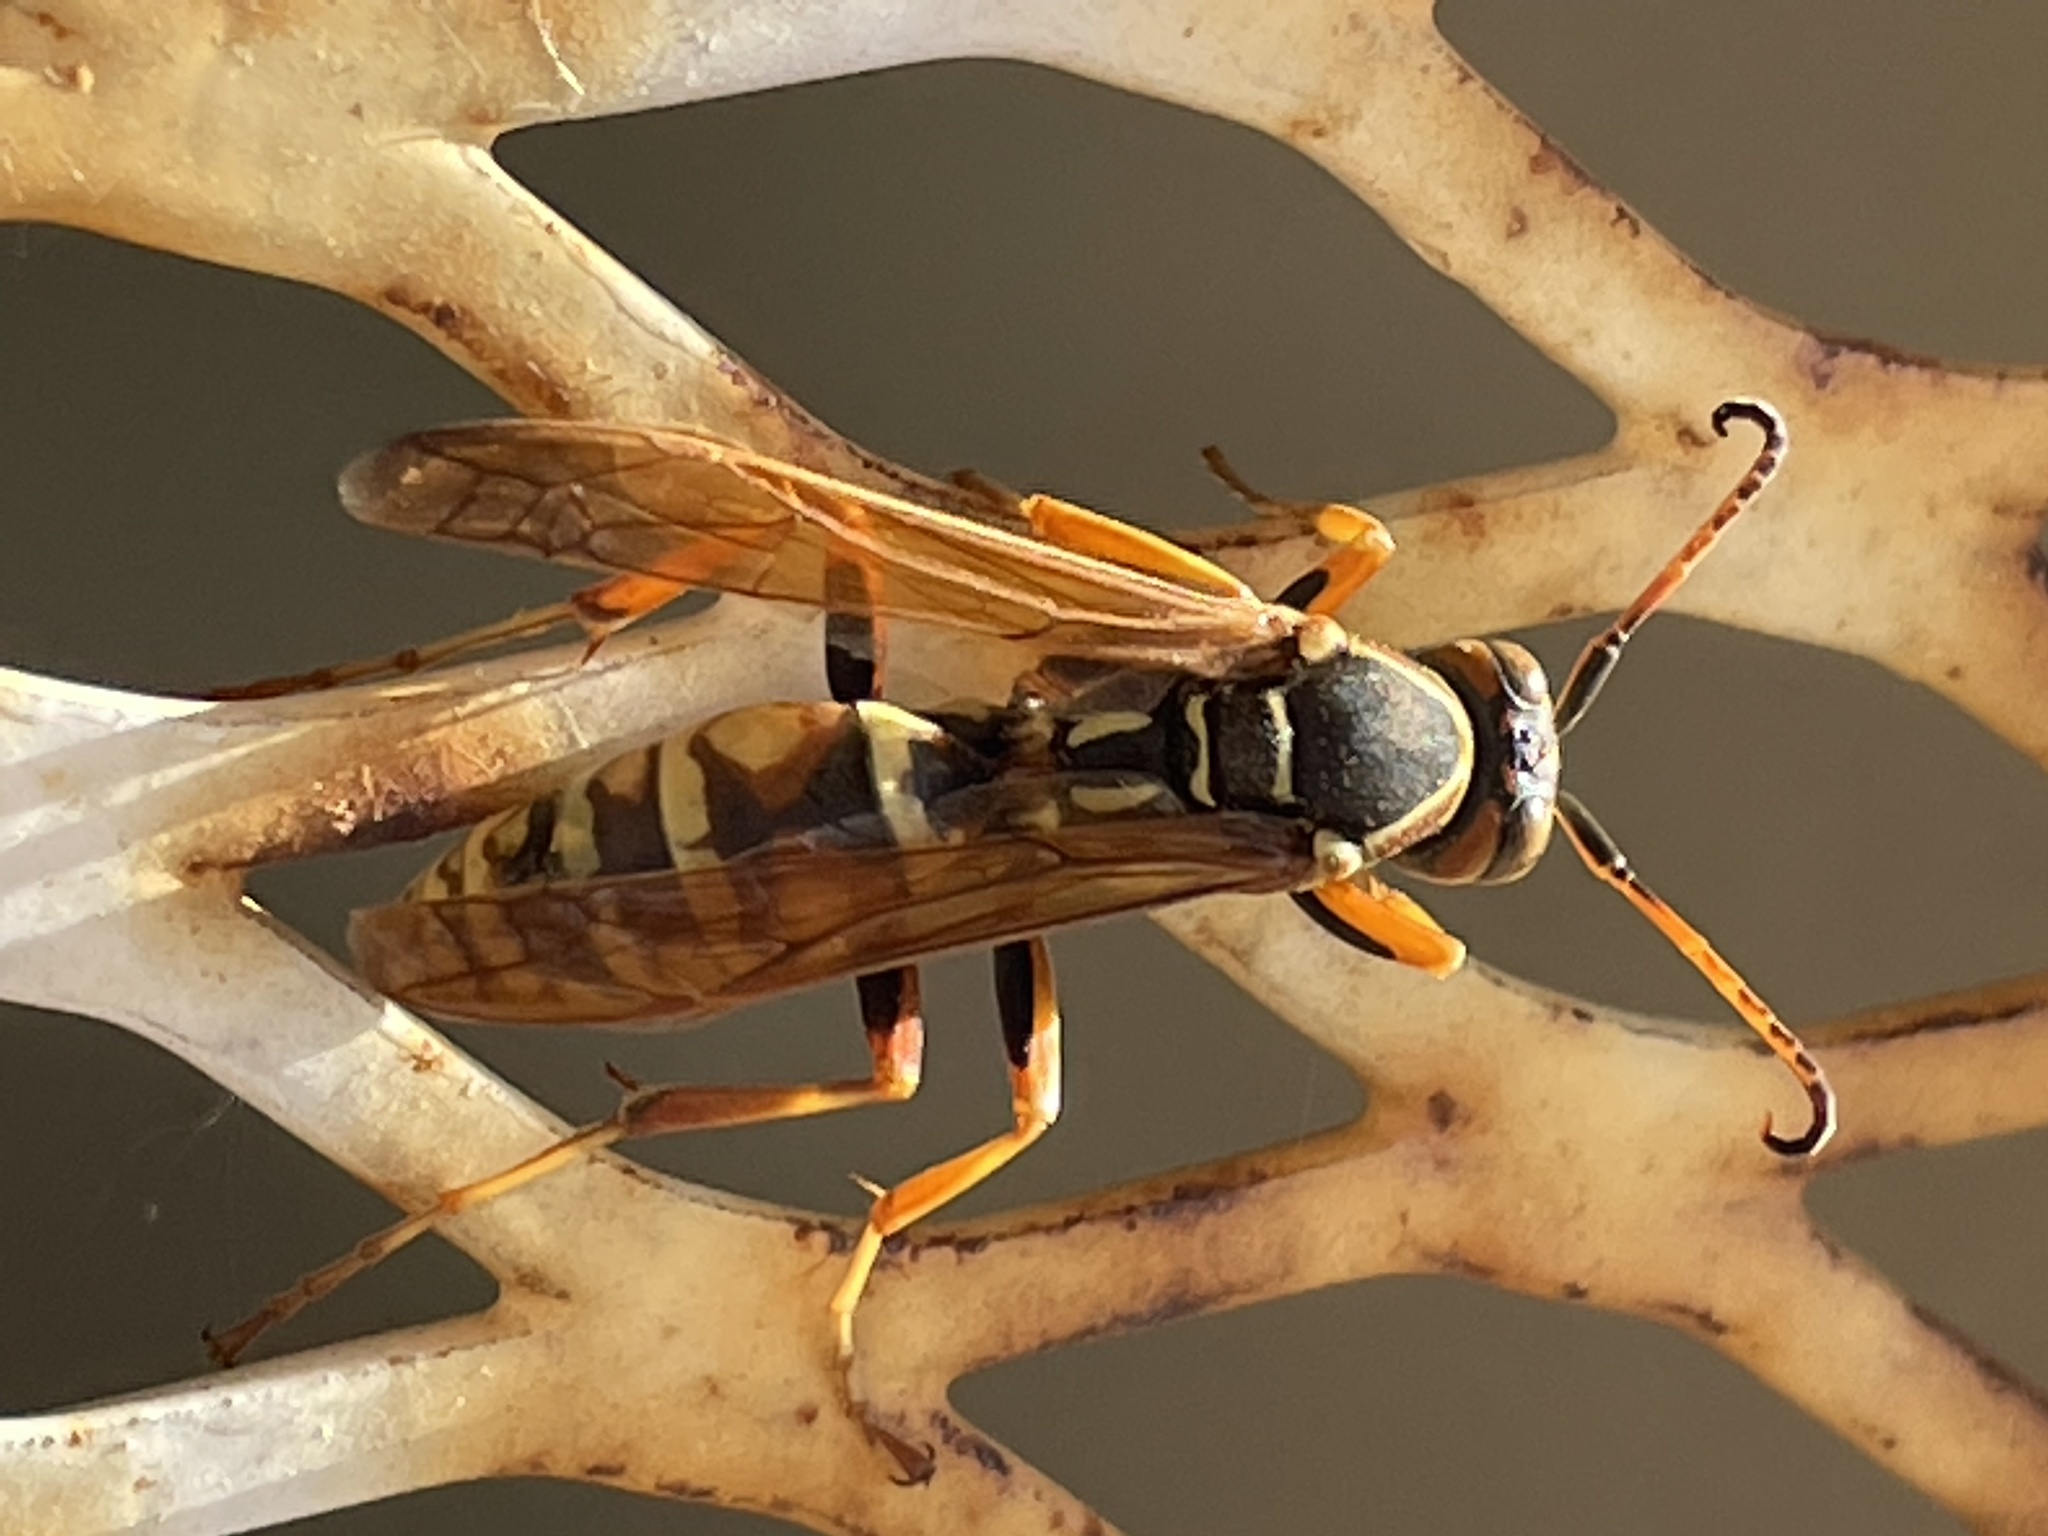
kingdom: Animalia
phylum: Arthropoda
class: Insecta
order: Hymenoptera
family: Eumenidae
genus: Polistes
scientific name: Polistes aurifer
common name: Paper wasp
